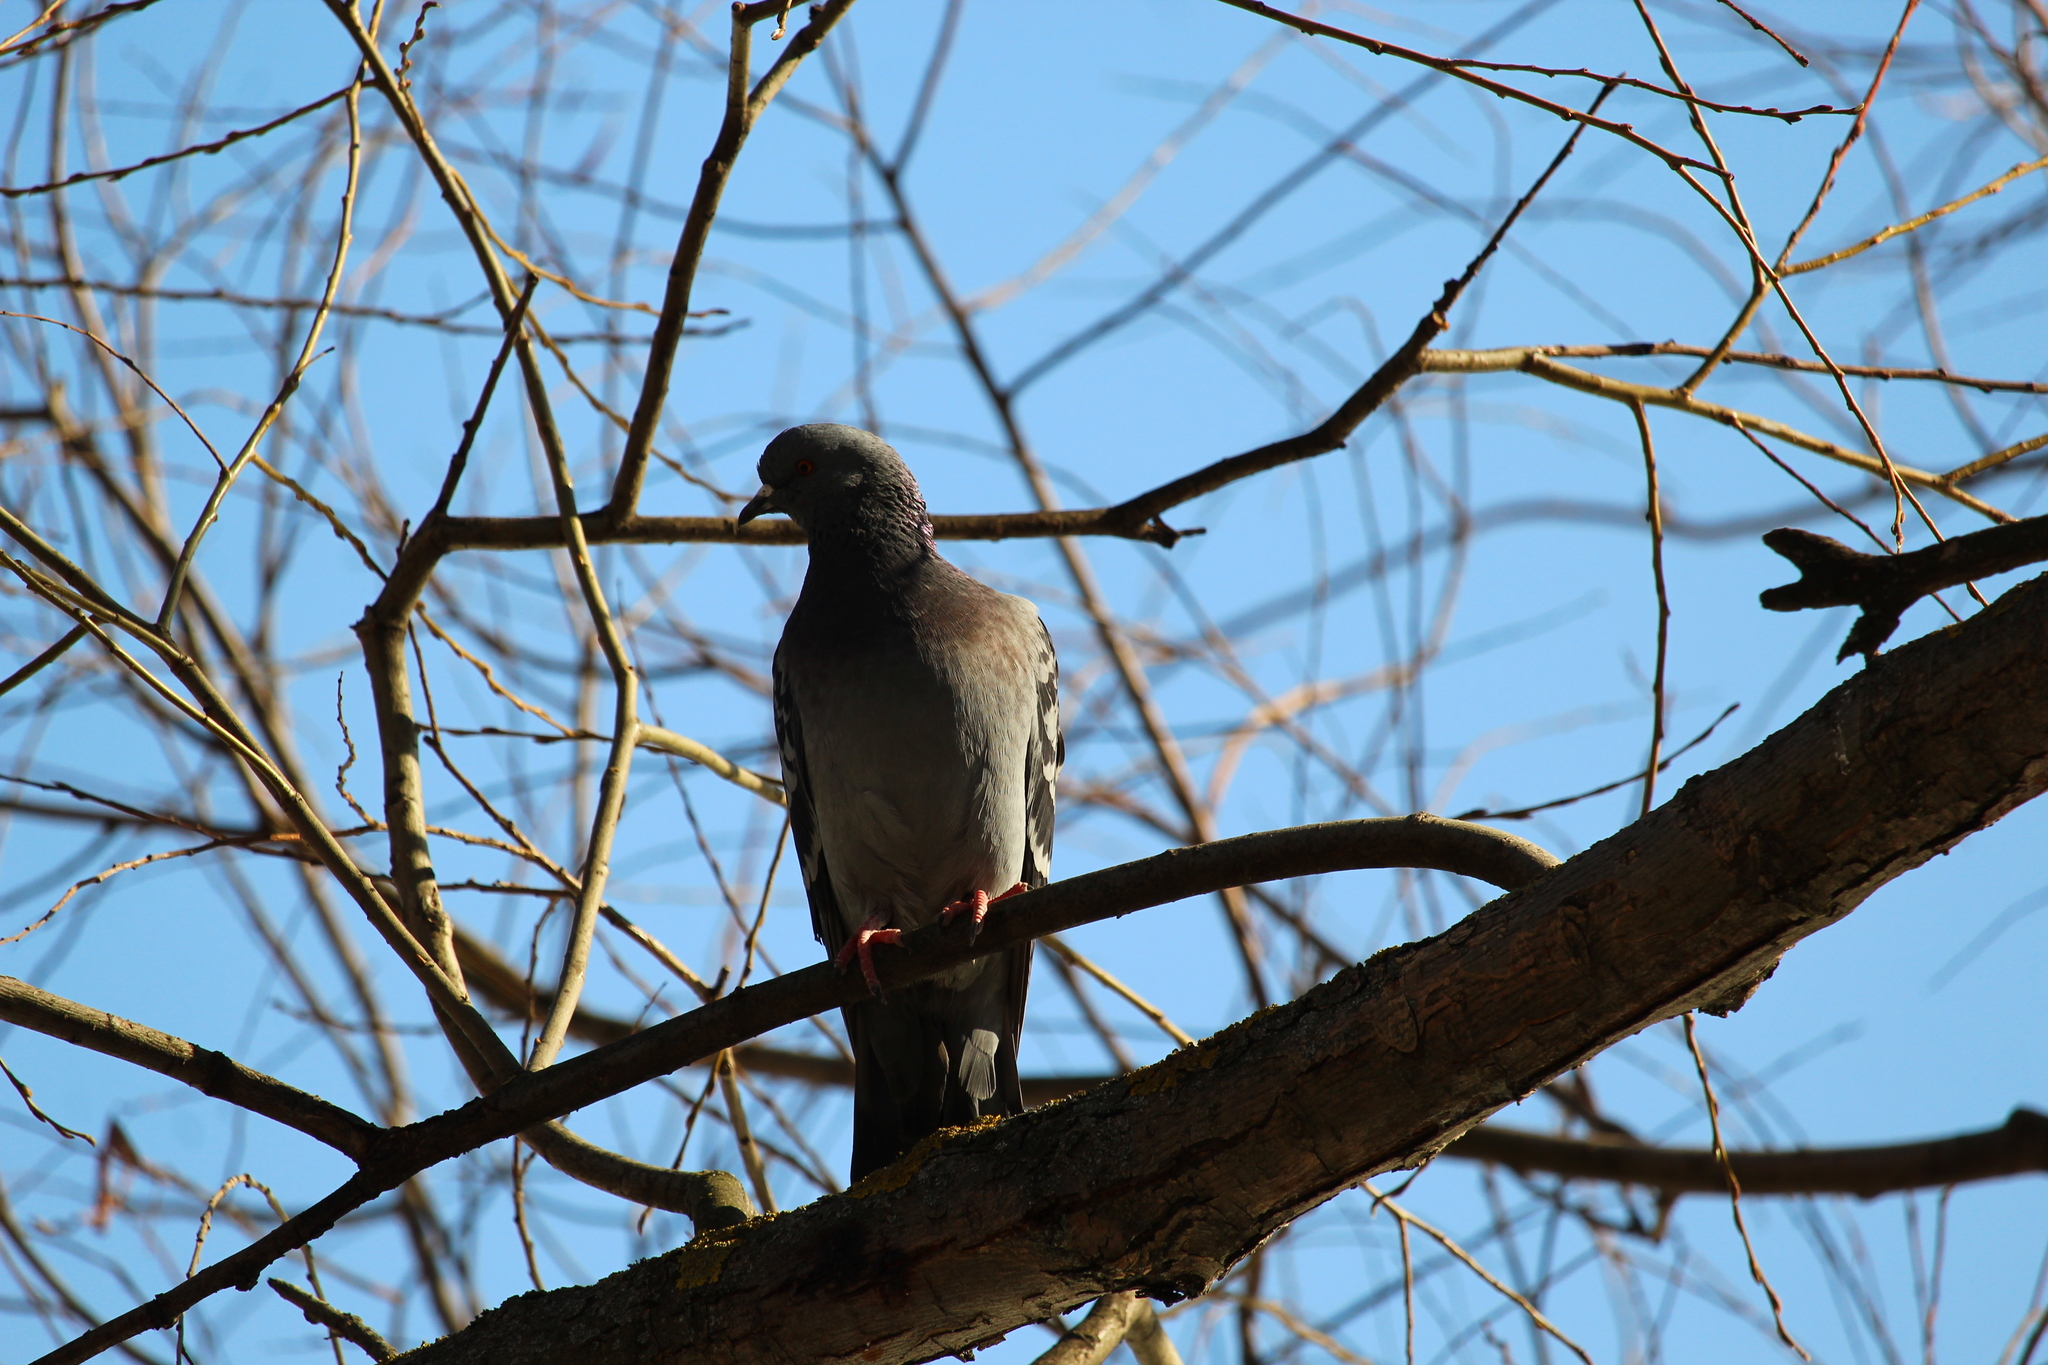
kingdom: Animalia
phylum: Chordata
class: Aves
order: Columbiformes
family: Columbidae
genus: Columba
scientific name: Columba livia
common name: Rock pigeon
